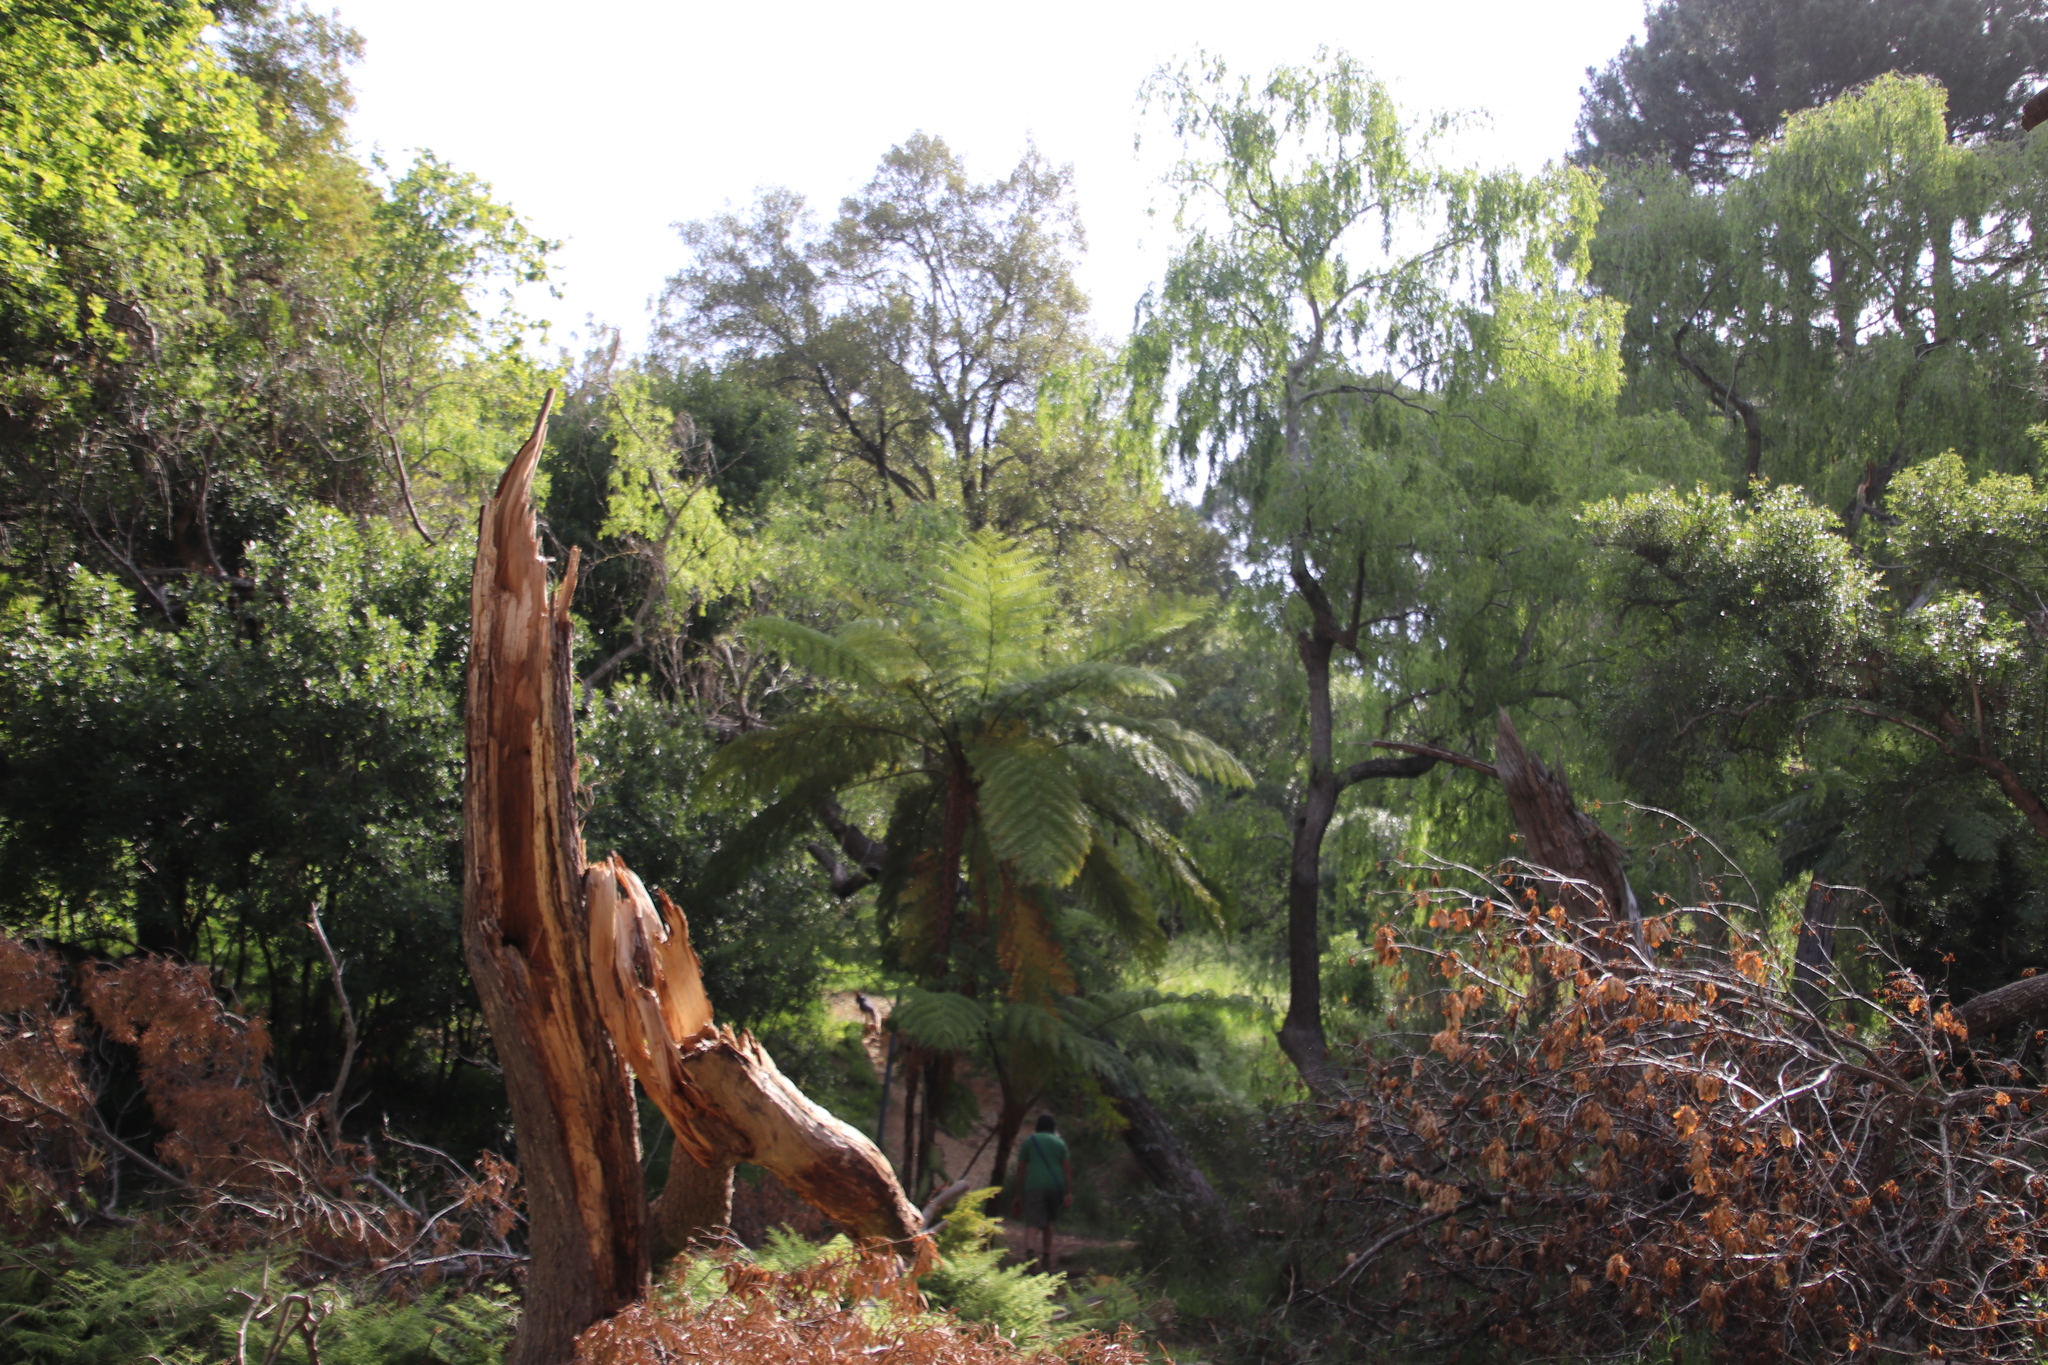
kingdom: Plantae
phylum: Tracheophyta
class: Polypodiopsida
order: Cyatheales
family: Cyatheaceae
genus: Sphaeropteris
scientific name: Sphaeropteris cooperi
